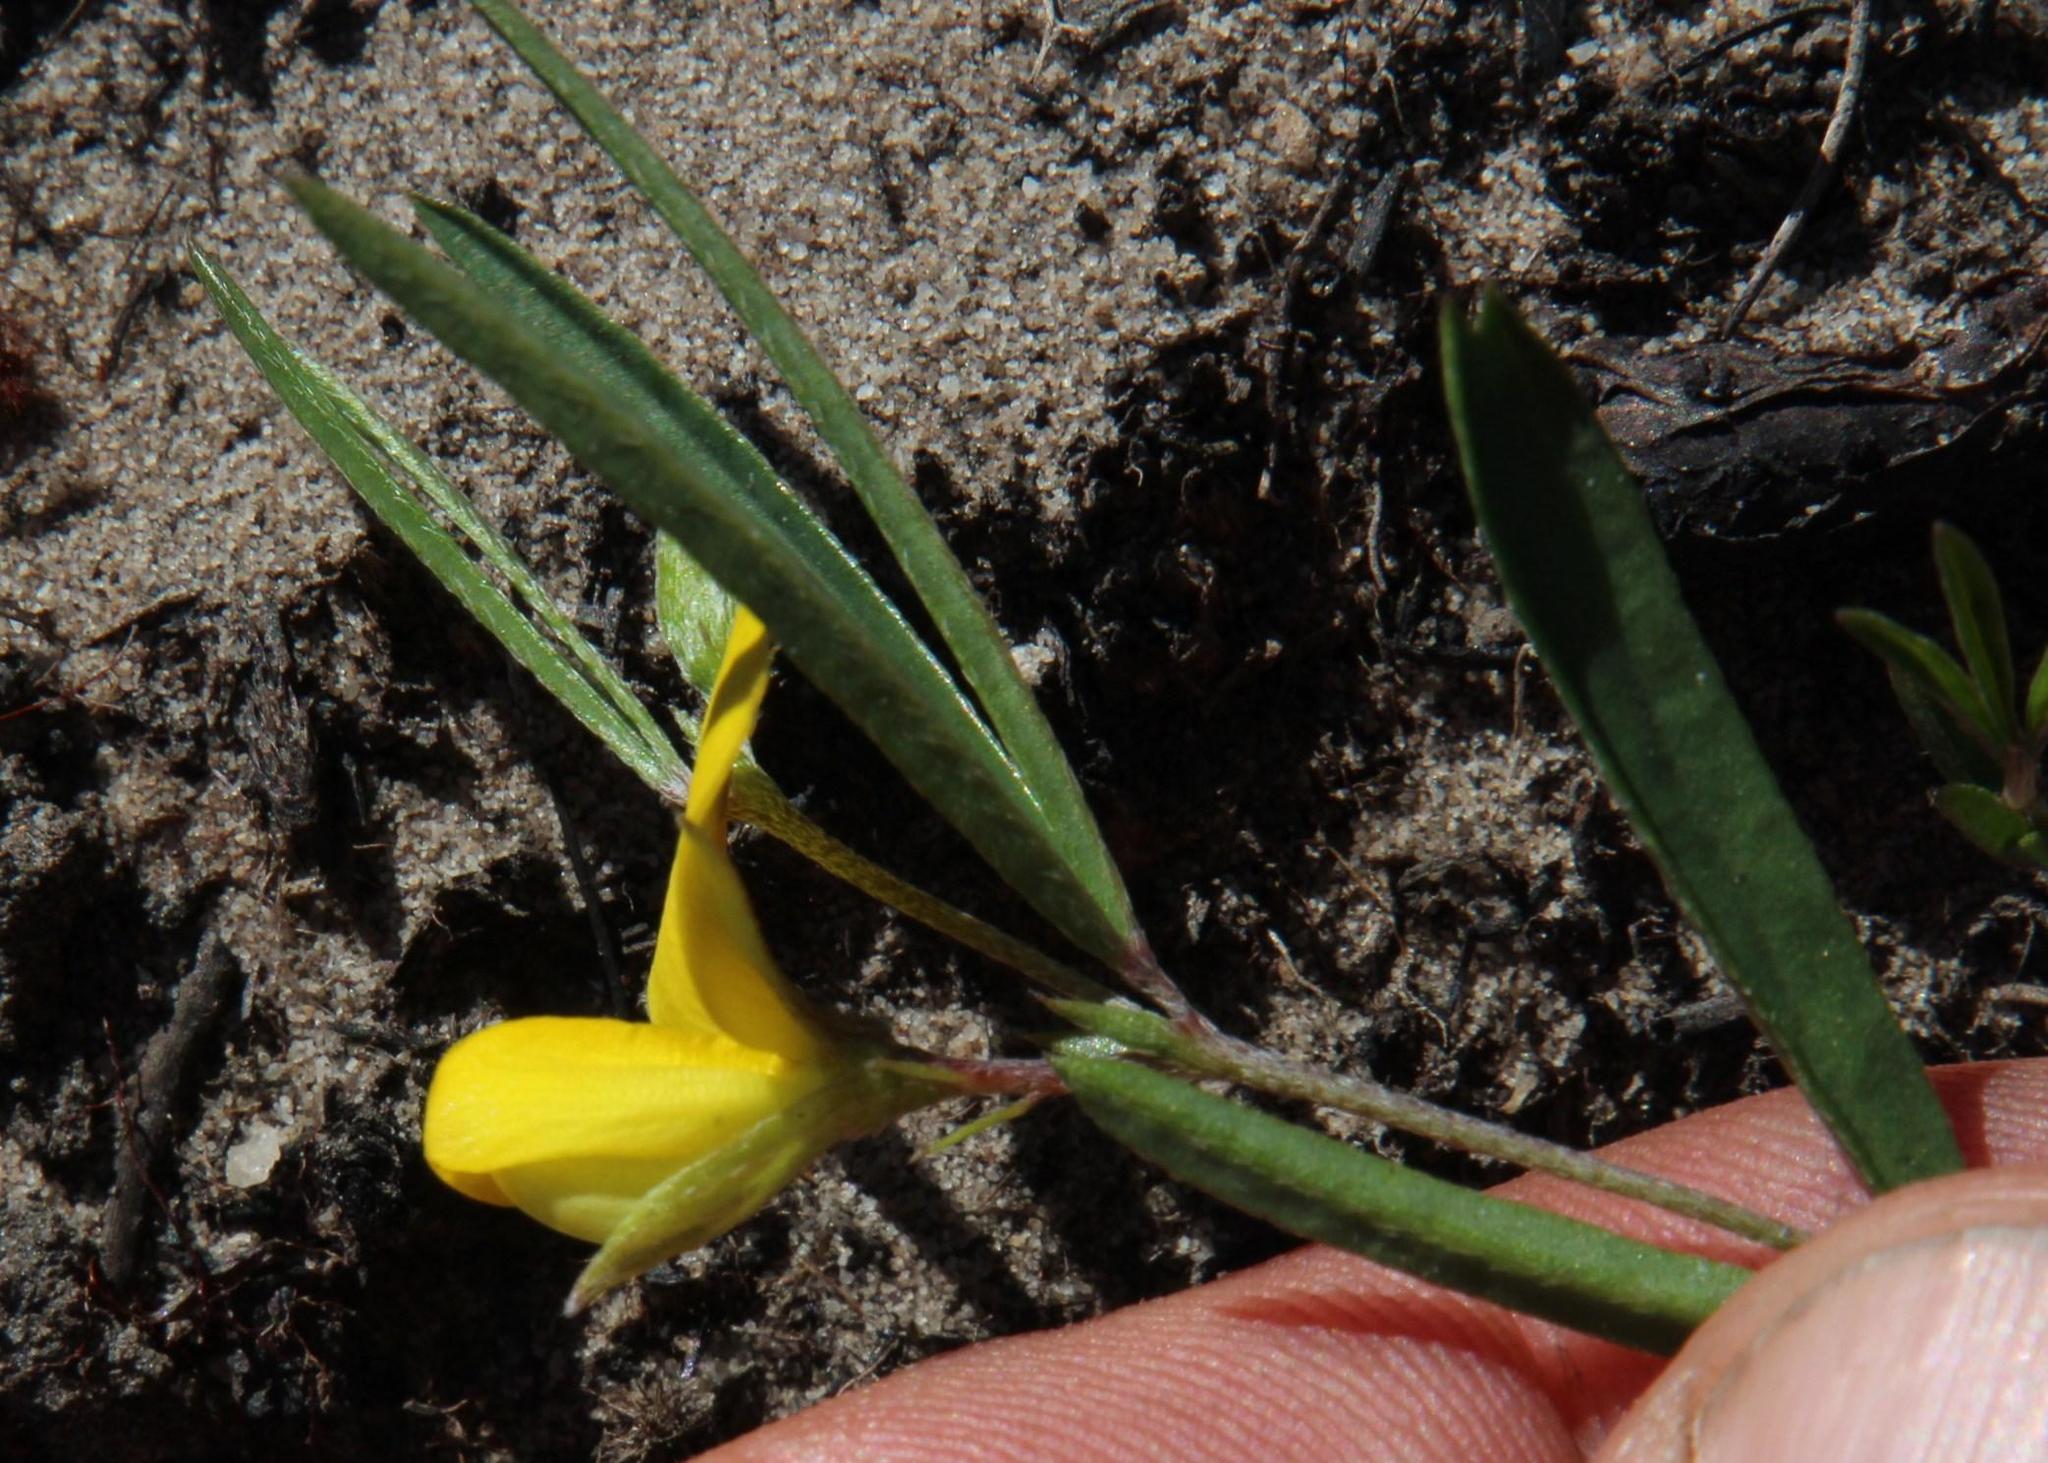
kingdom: Plantae
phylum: Tracheophyta
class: Magnoliopsida
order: Fabales
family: Fabaceae
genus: Argyrolobium
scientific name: Argyrolobium lunare
